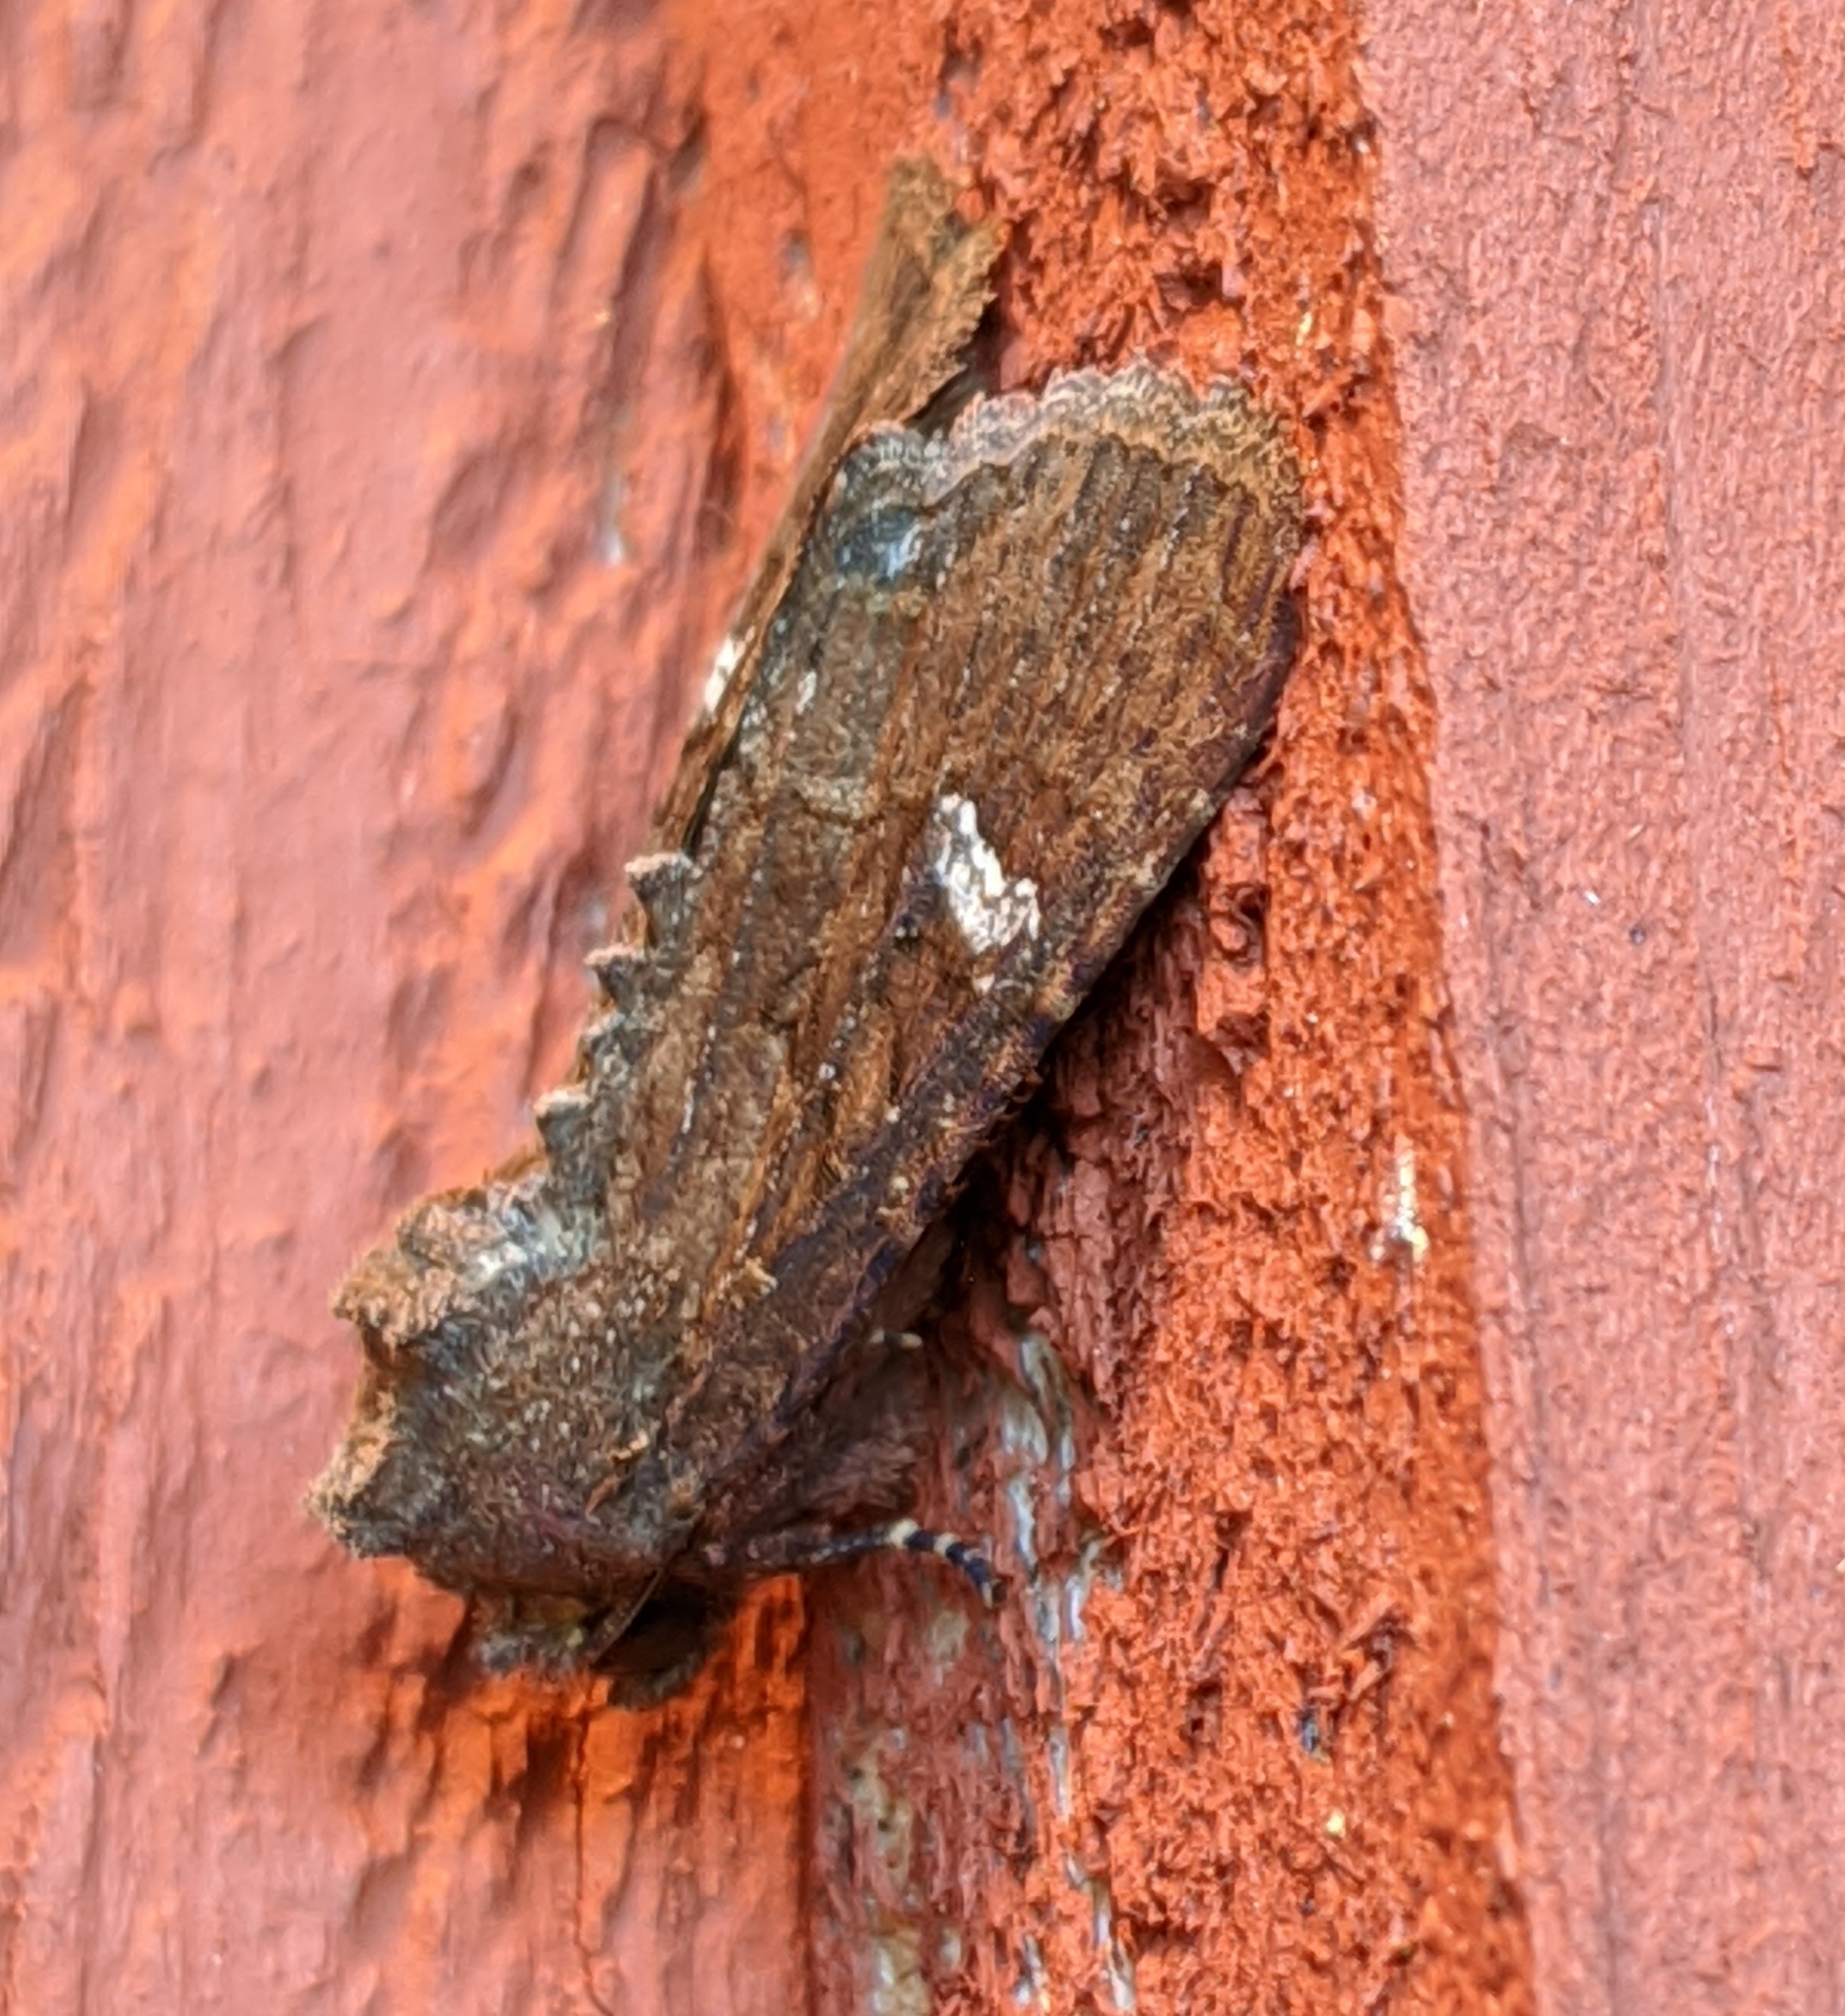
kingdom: Animalia
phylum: Arthropoda
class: Insecta
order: Lepidoptera
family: Noctuidae
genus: Apamea
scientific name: Apamea cogitata
